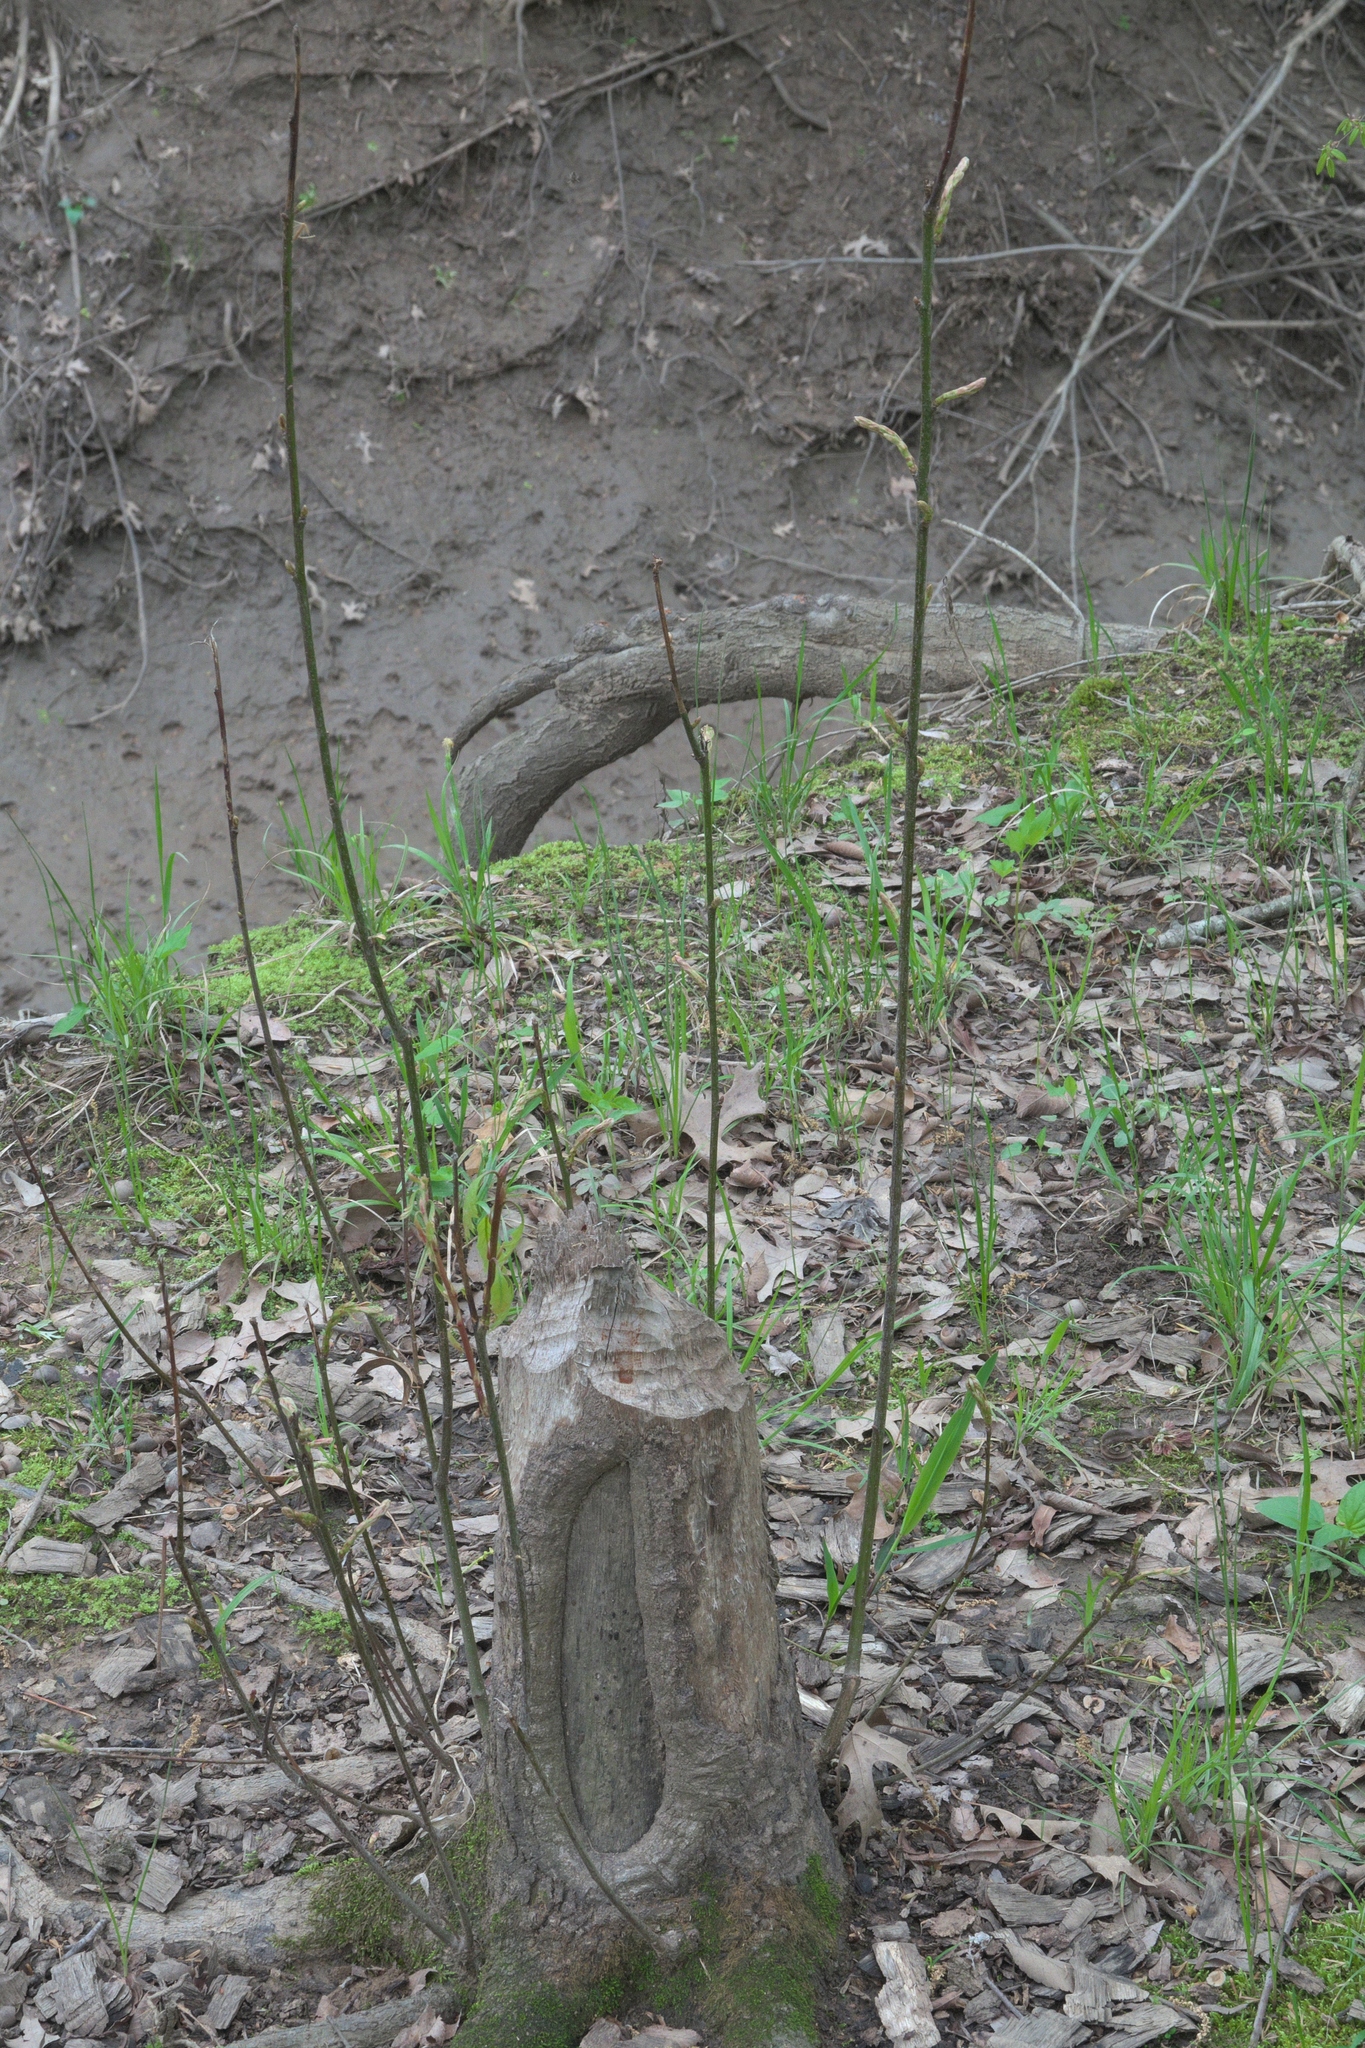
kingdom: Animalia
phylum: Chordata
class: Mammalia
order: Rodentia
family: Castoridae
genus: Castor
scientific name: Castor canadensis
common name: American beaver
